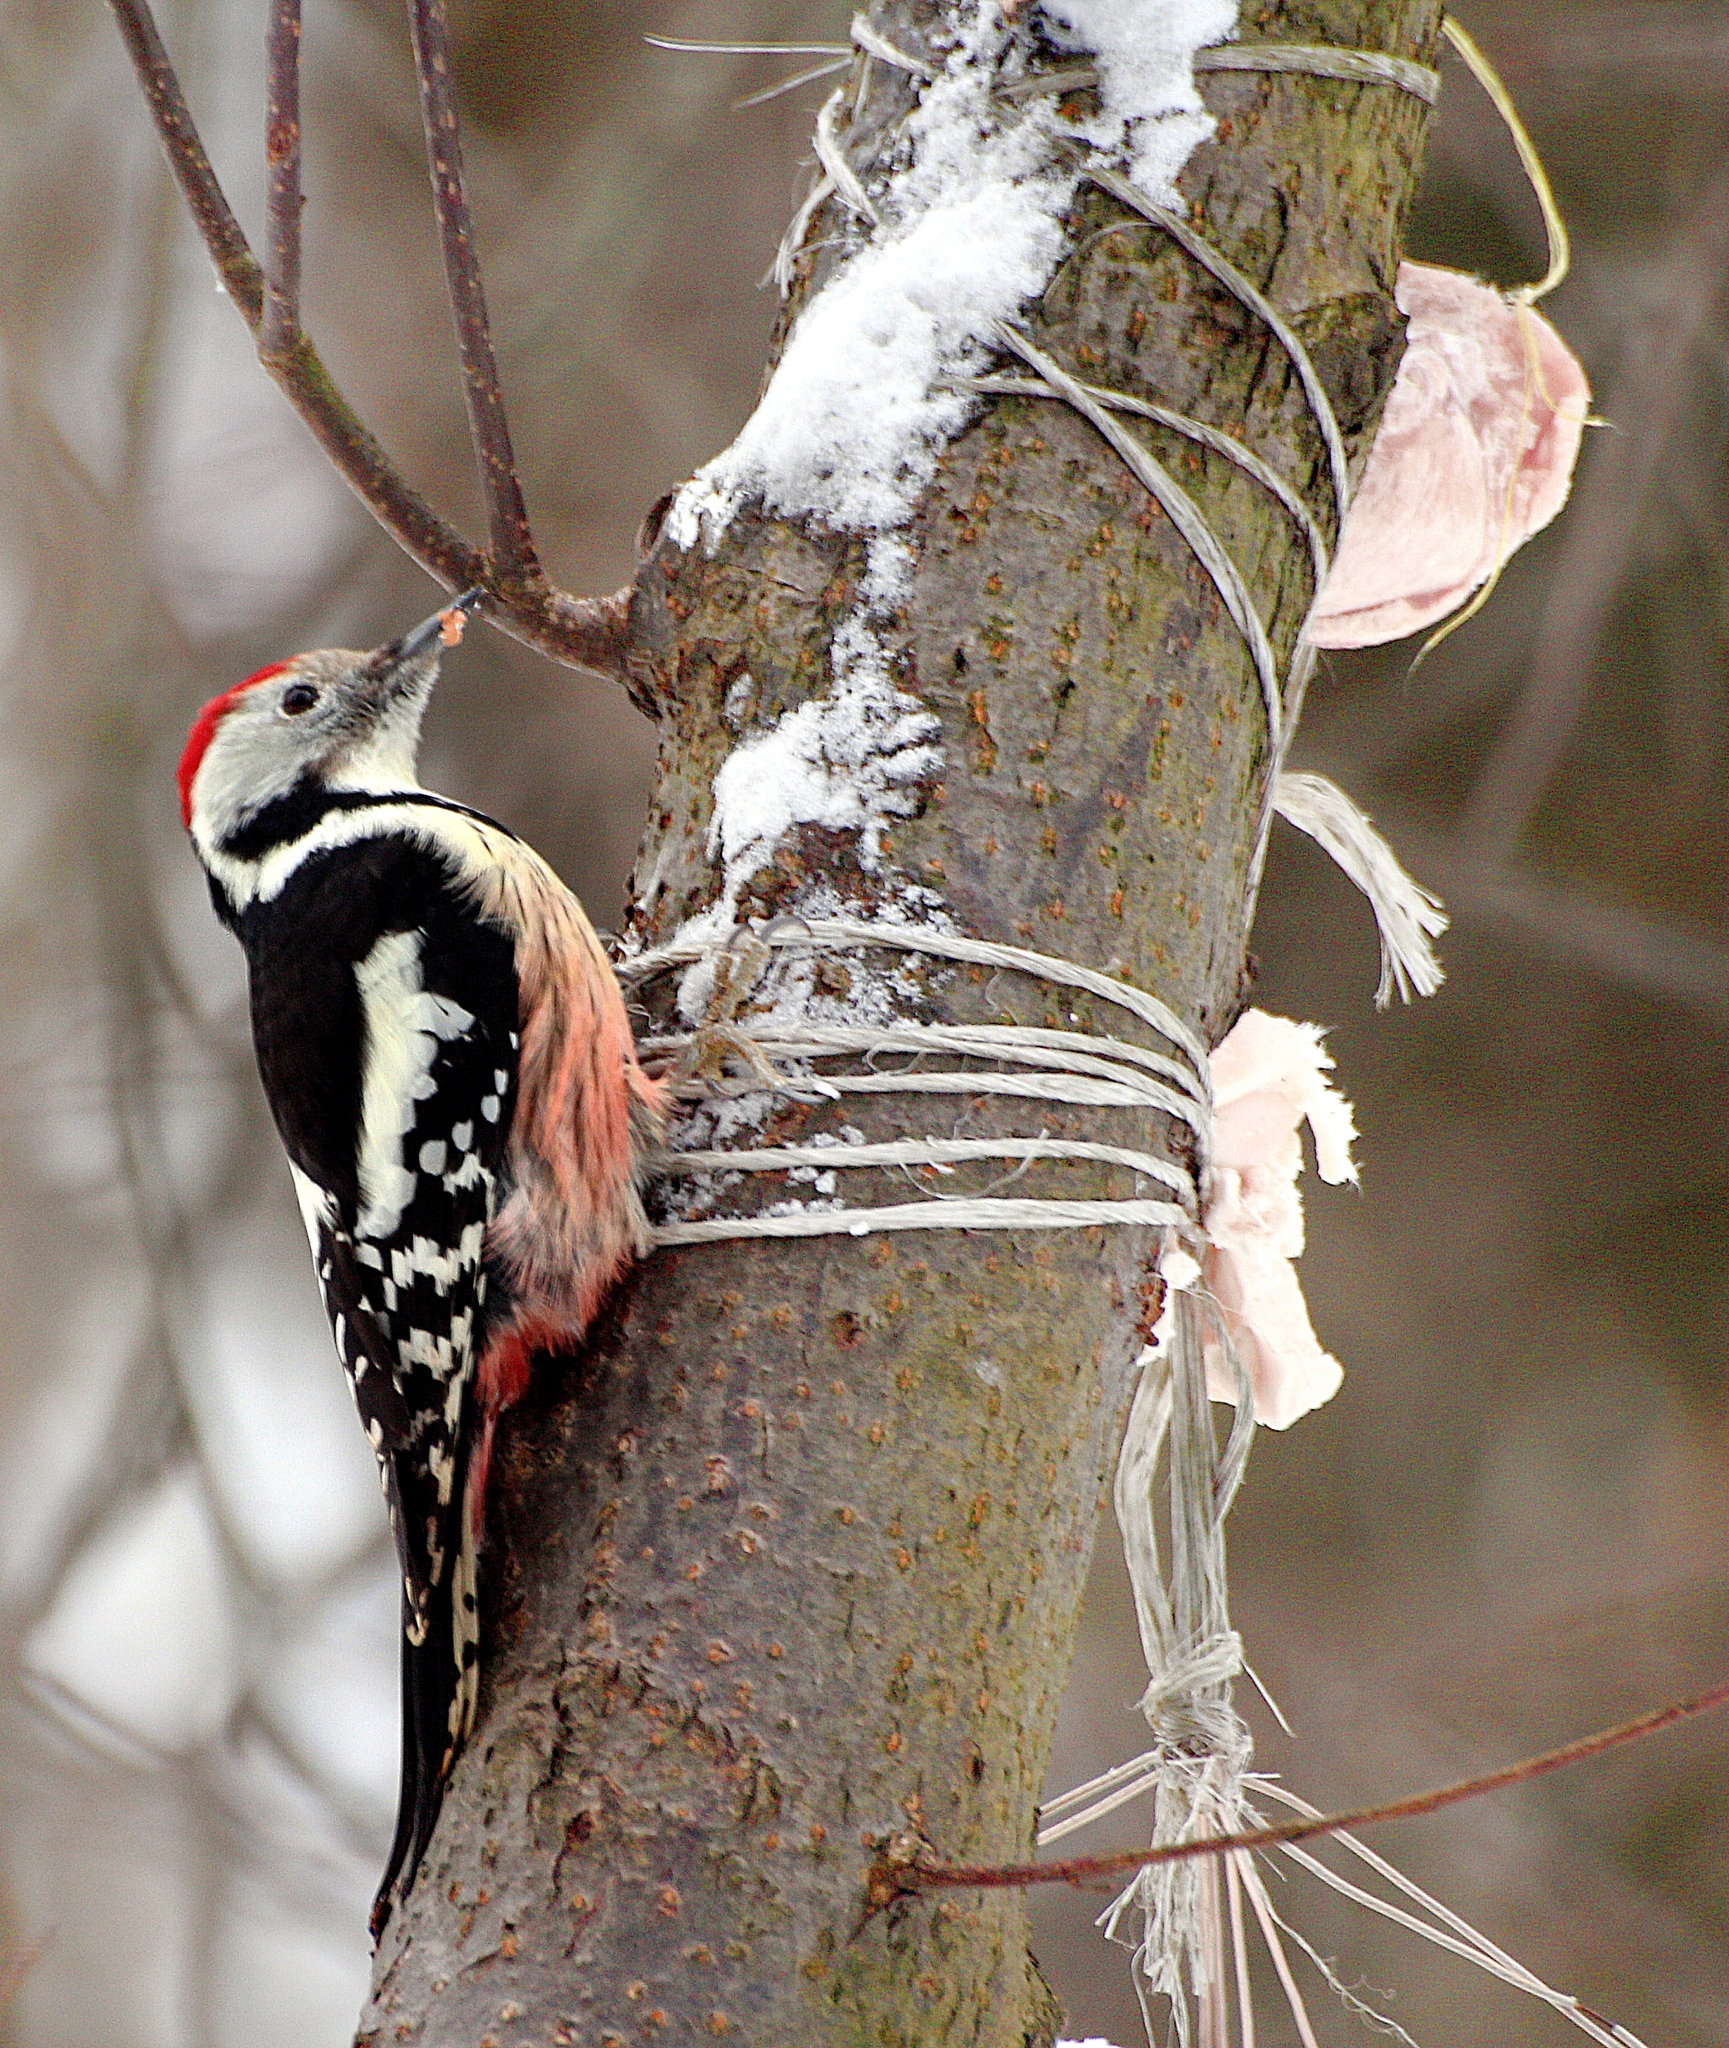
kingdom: Animalia
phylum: Chordata
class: Aves
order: Piciformes
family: Picidae
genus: Dendrocoptes
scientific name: Dendrocoptes medius
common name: Middle spotted woodpecker
